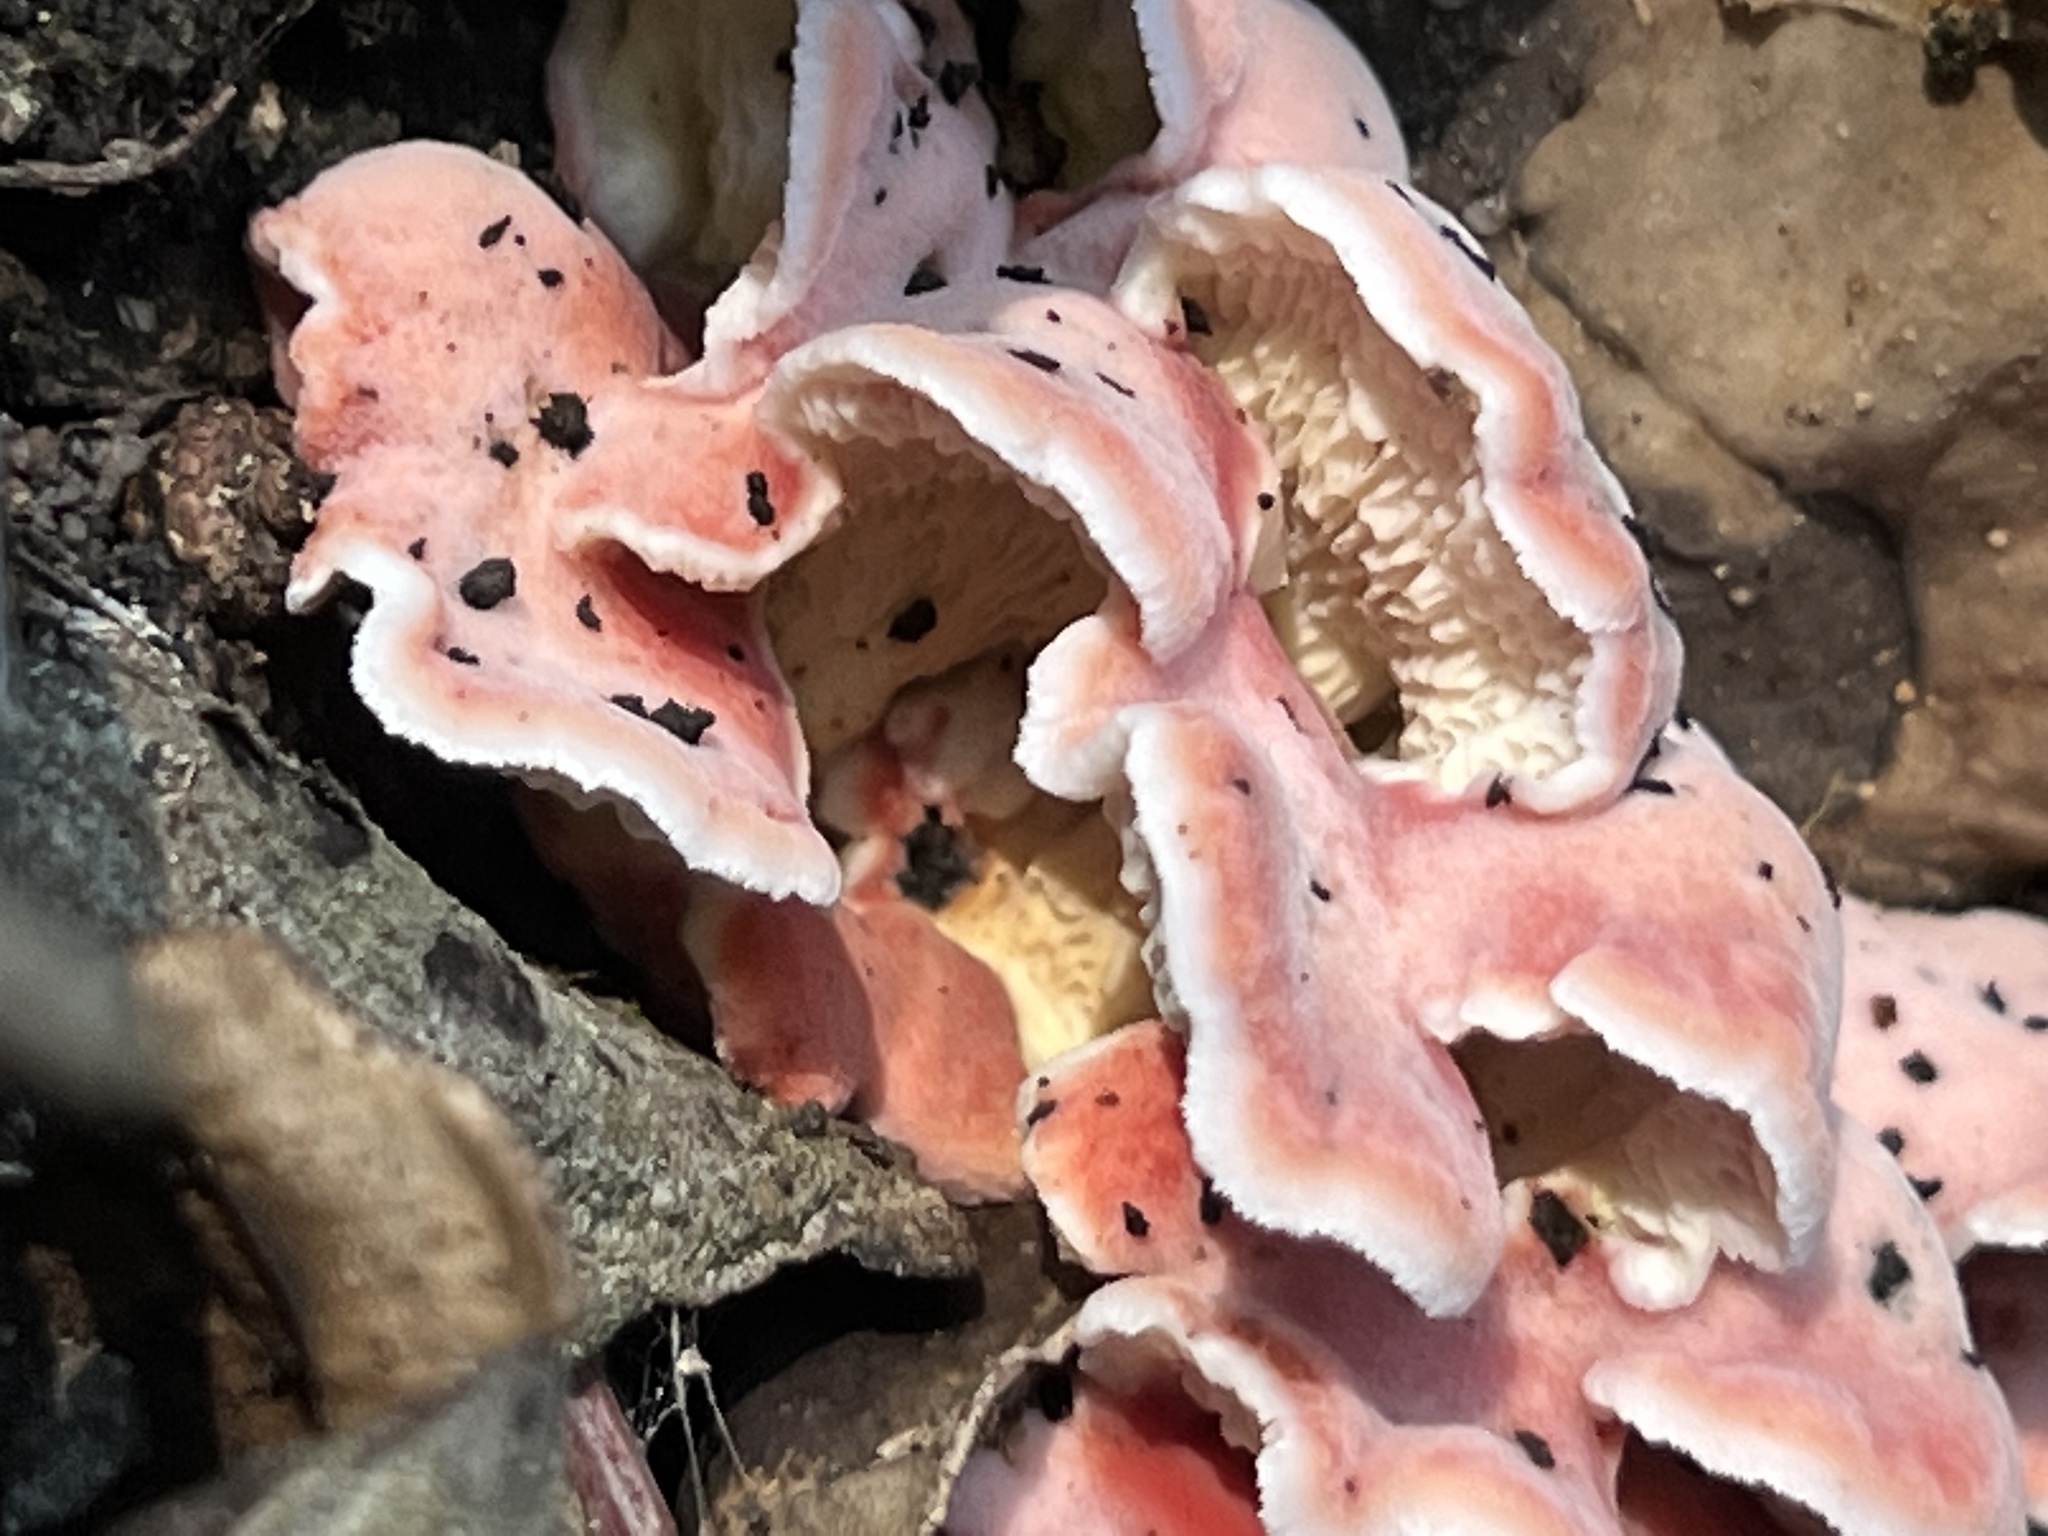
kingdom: Fungi
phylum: Basidiomycota
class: Agaricomycetes
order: Polyporales
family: Irpicaceae
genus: Byssomerulius
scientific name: Byssomerulius incarnatus
